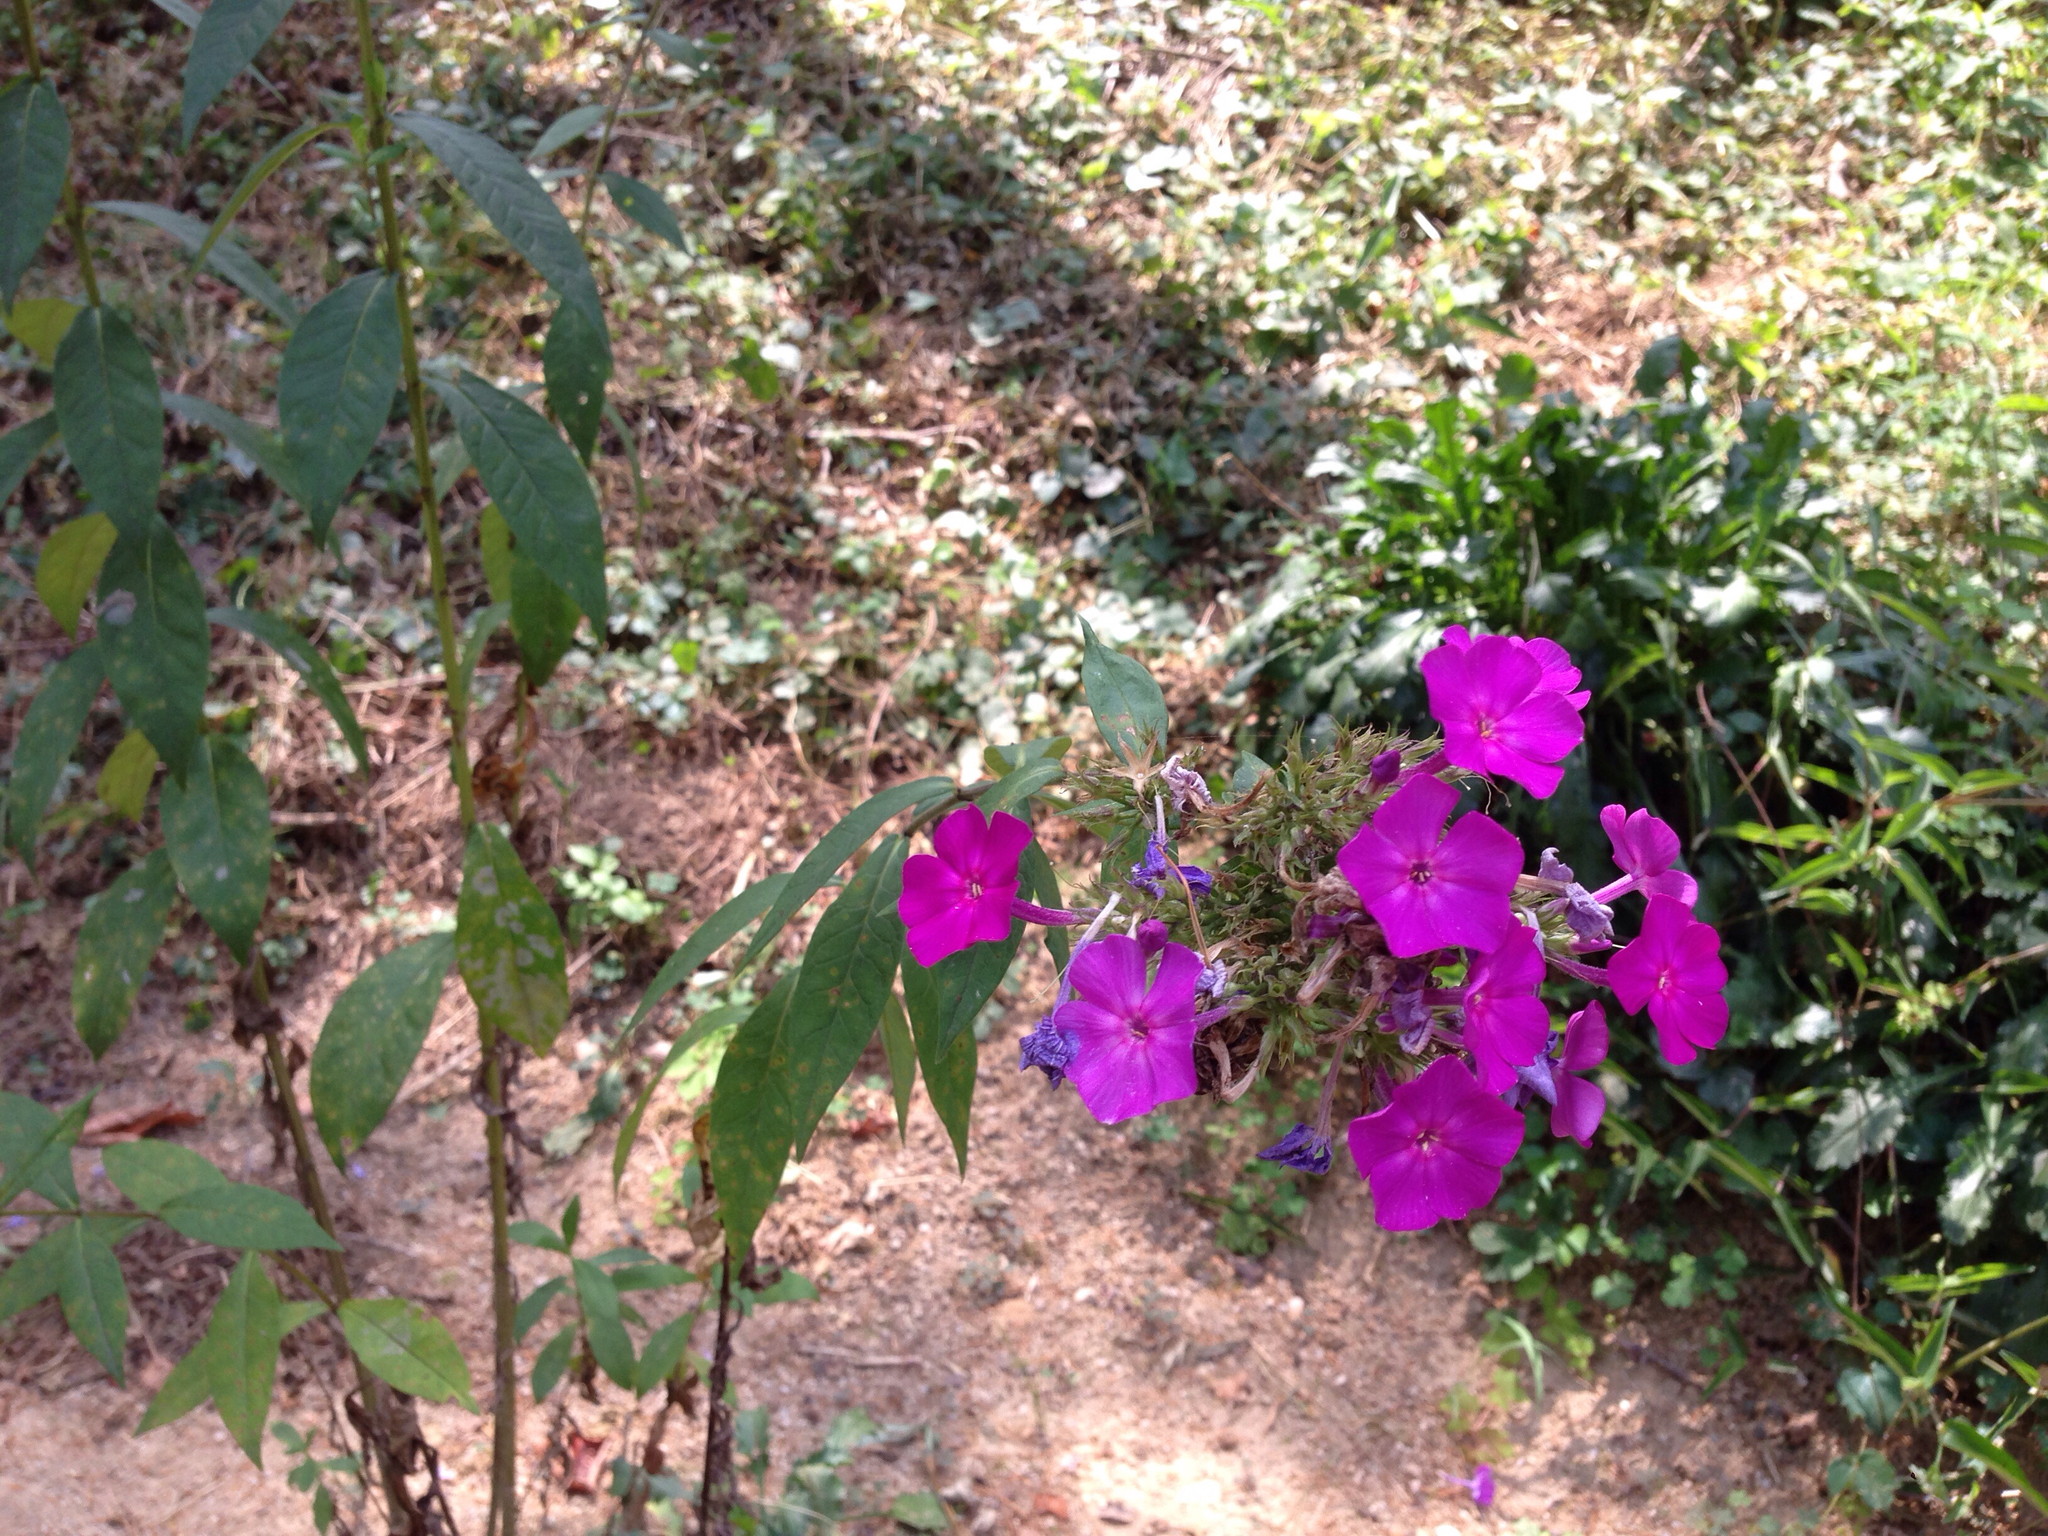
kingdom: Plantae
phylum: Tracheophyta
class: Magnoliopsida
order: Caryophyllales
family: Nyctaginaceae
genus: Mirabilis
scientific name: Mirabilis jalapa
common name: Marvel-of-peru
